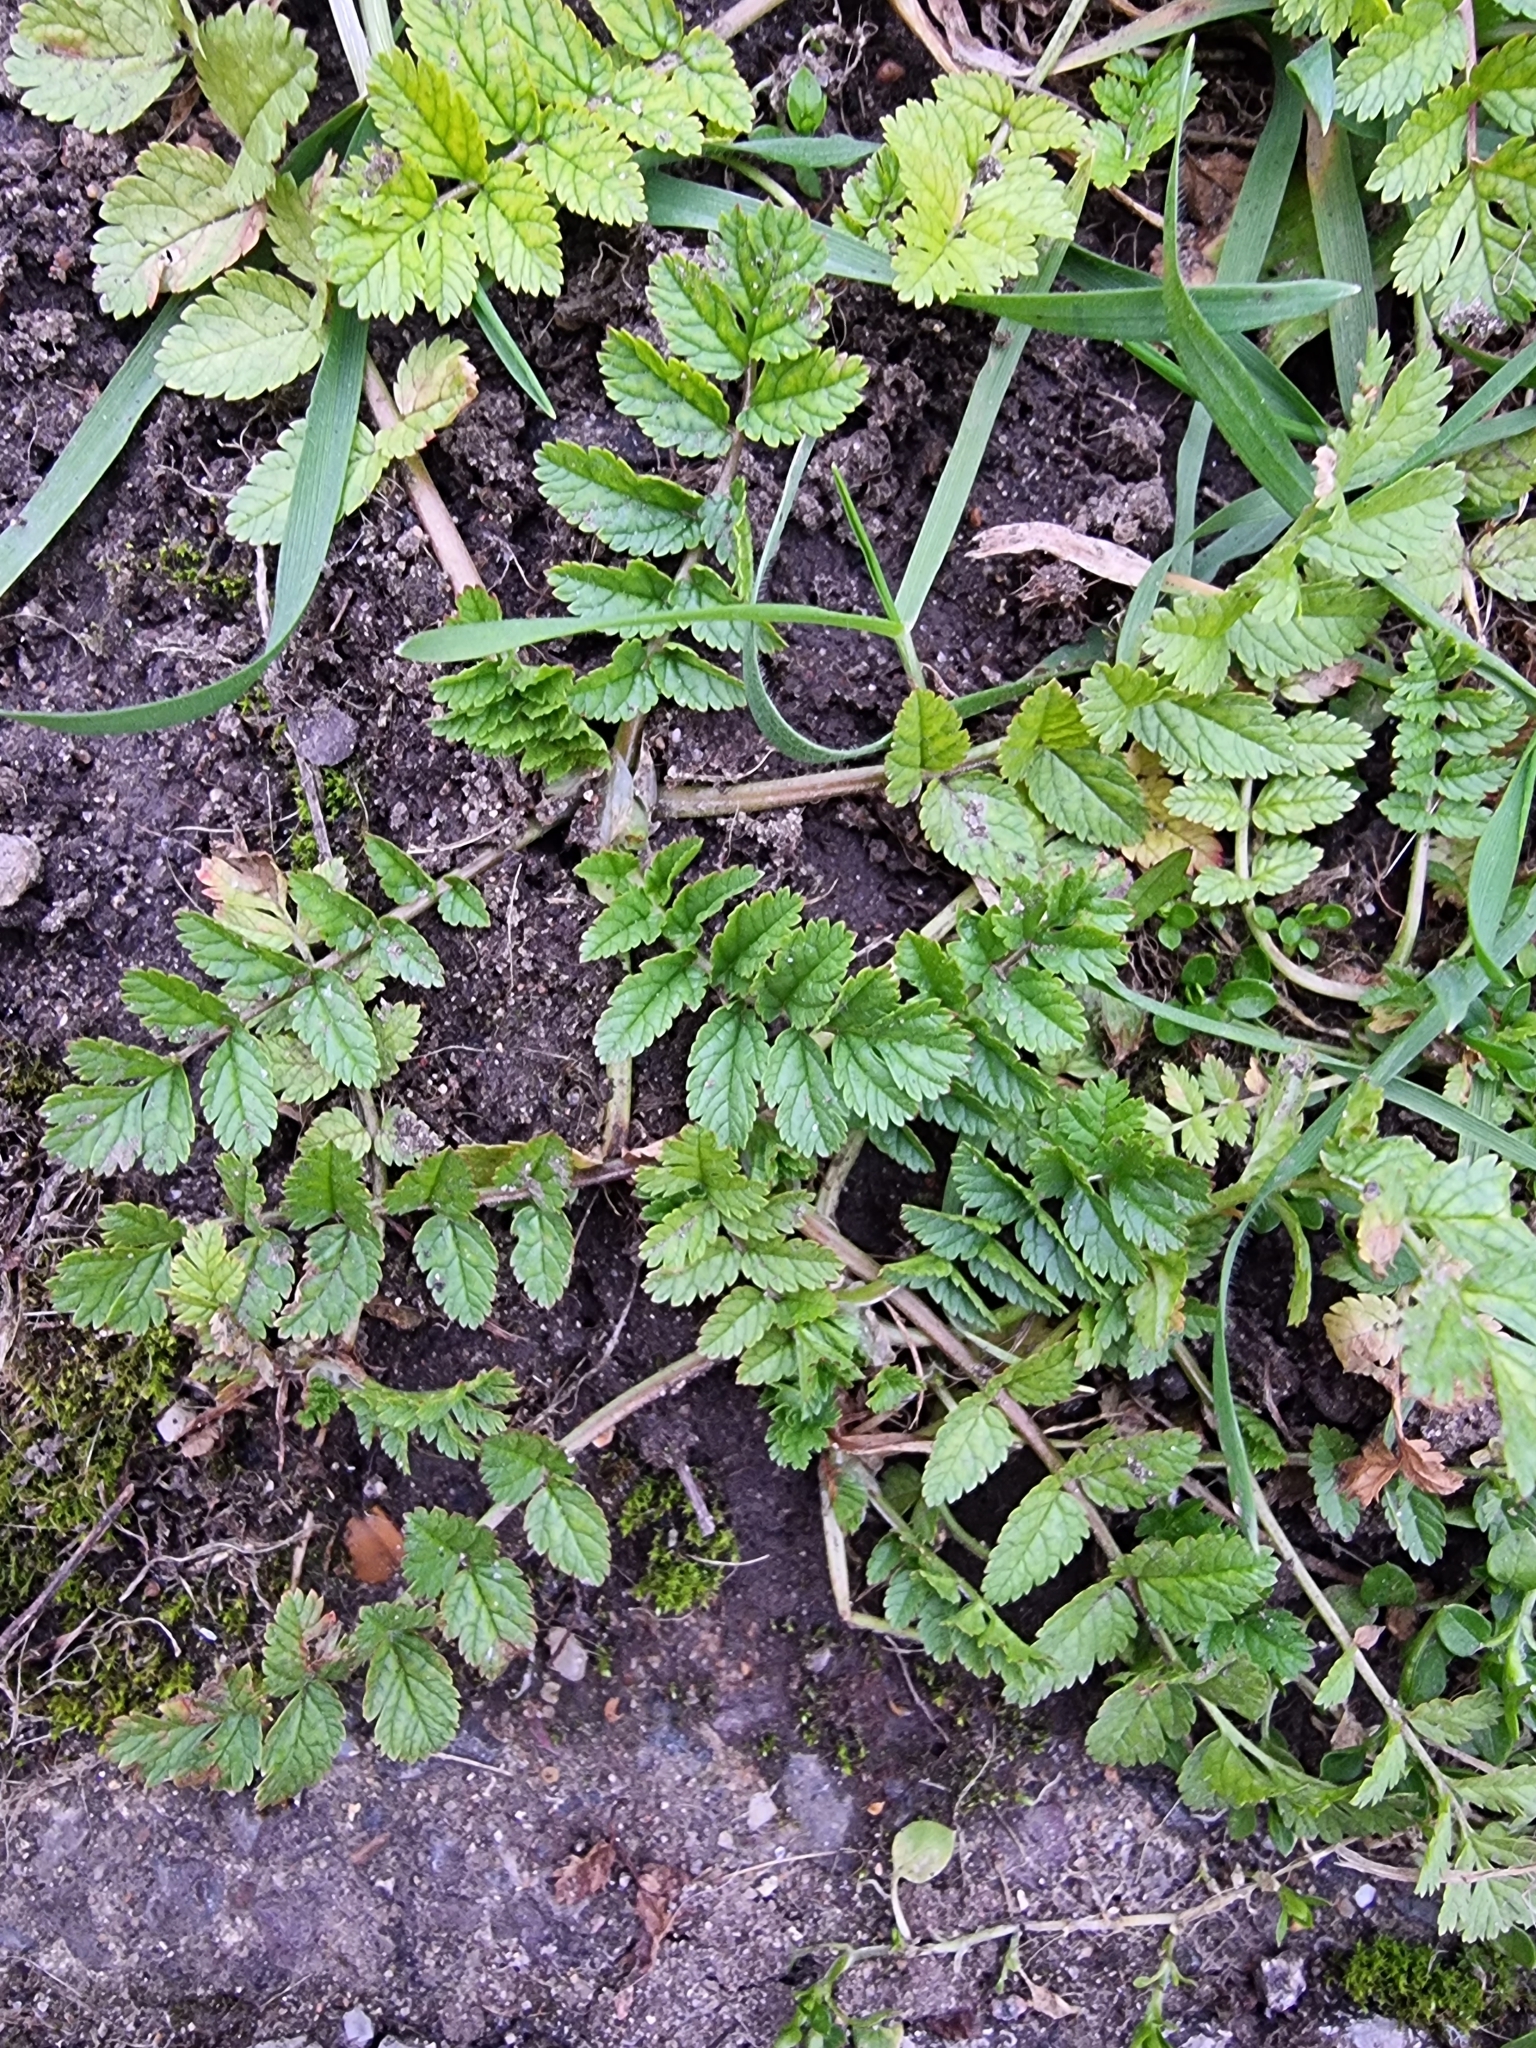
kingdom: Plantae
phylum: Tracheophyta
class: Magnoliopsida
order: Geraniales
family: Geraniaceae
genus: Erodium
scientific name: Erodium moschatum
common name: Musk stork's-bill
